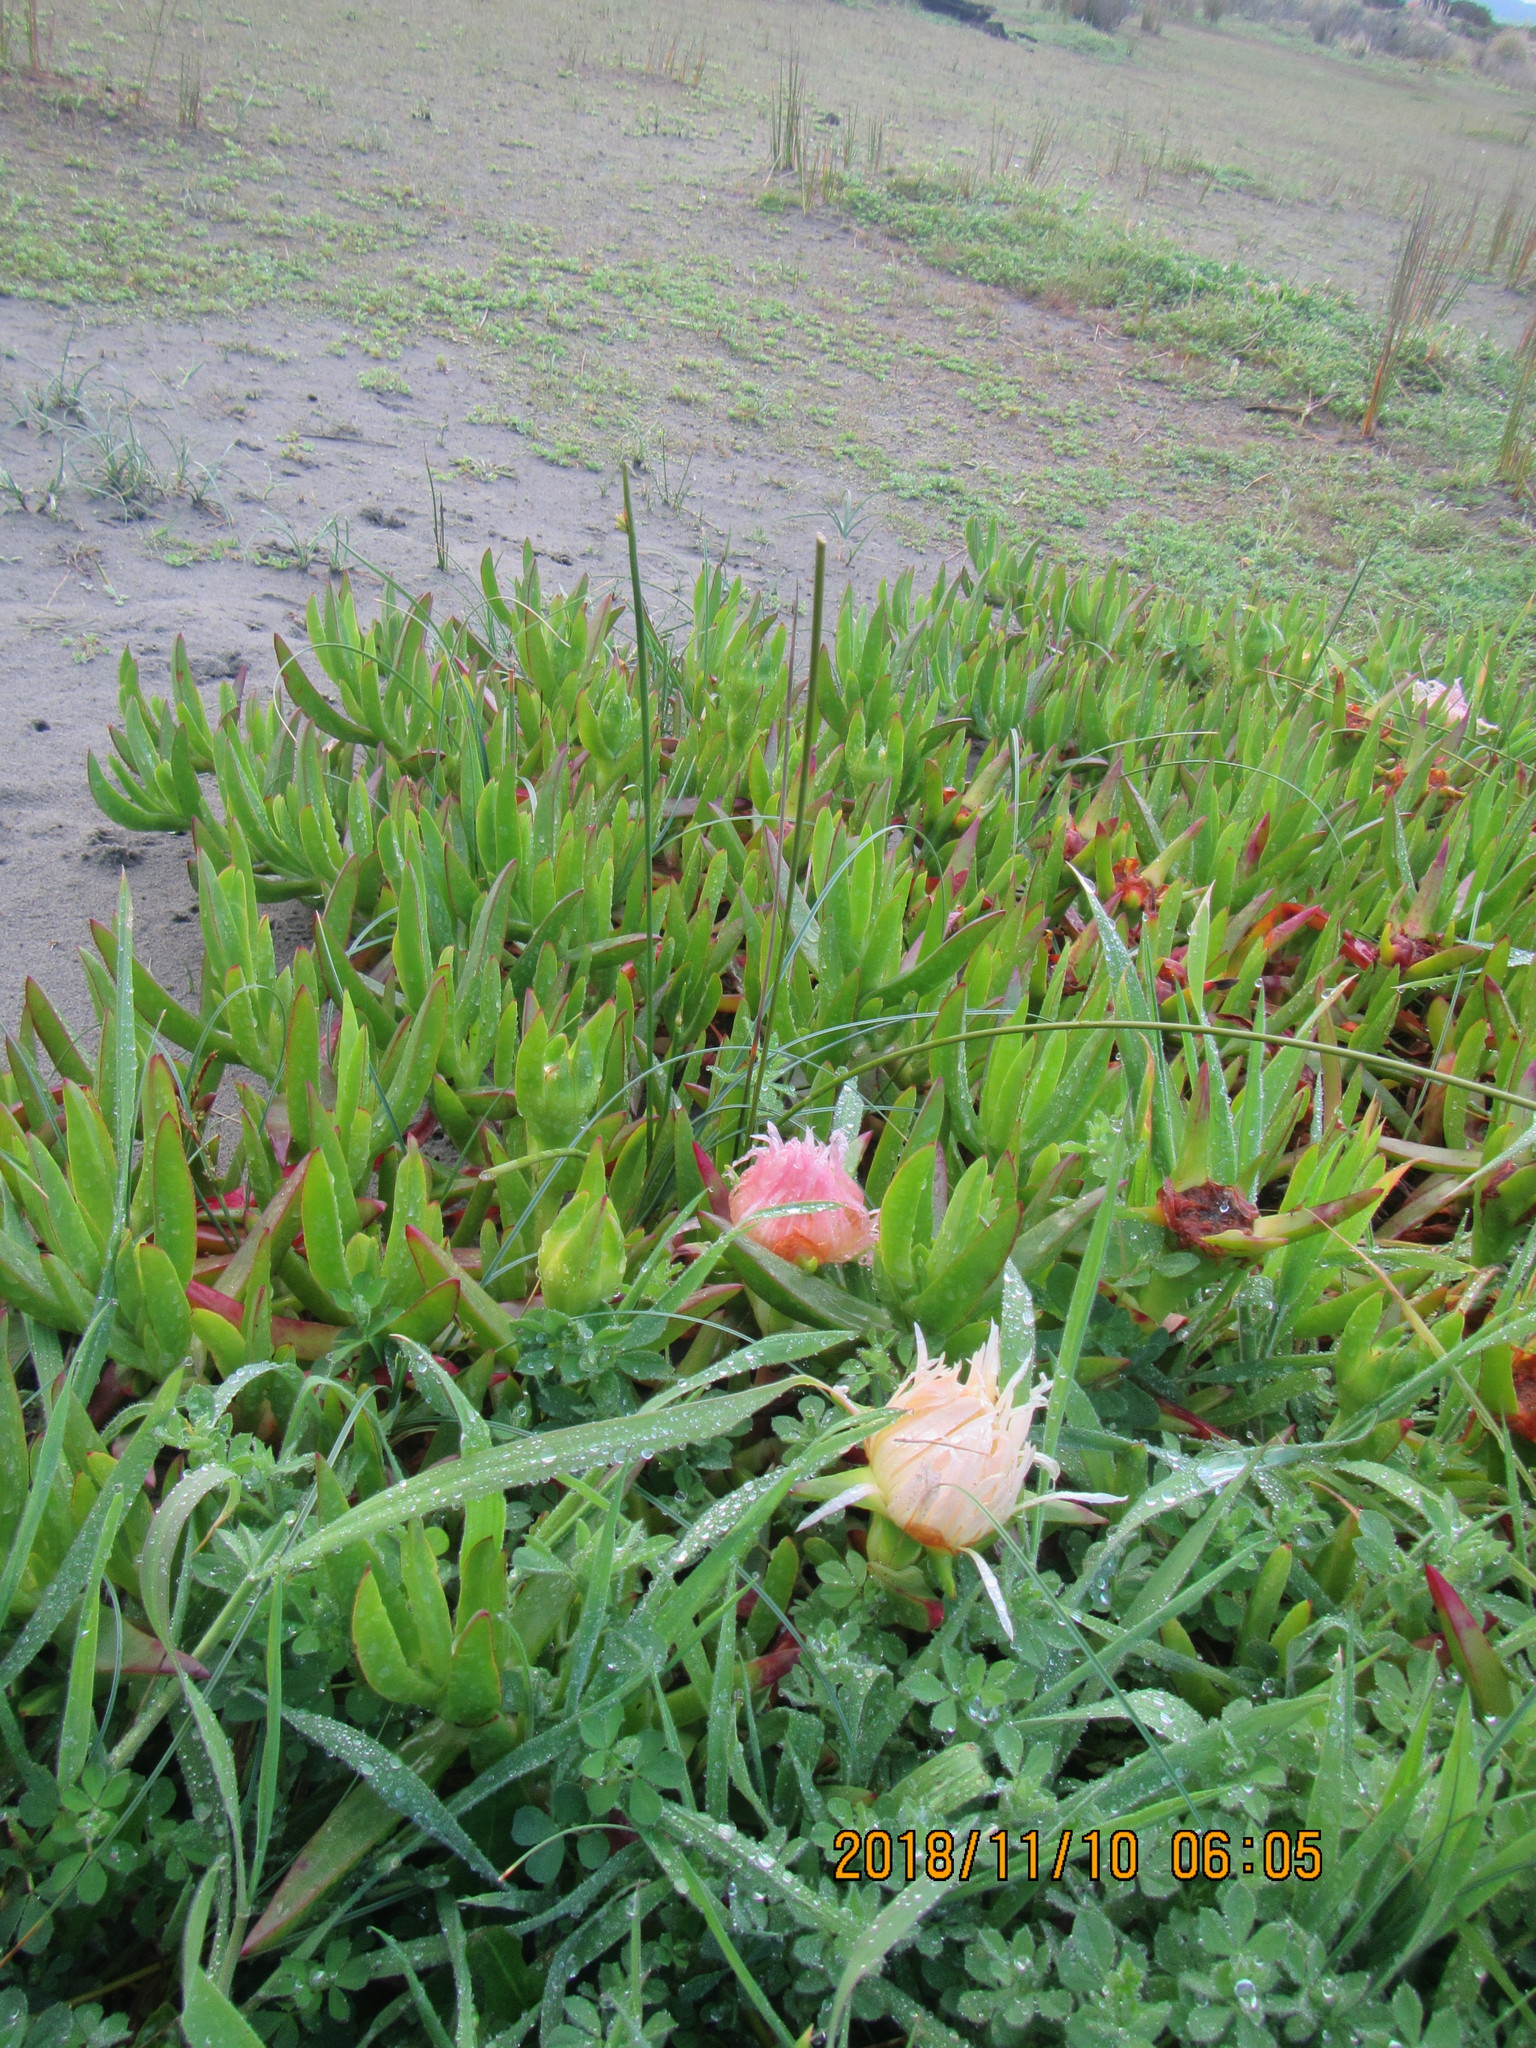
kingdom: Plantae
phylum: Tracheophyta
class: Magnoliopsida
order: Caryophyllales
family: Aizoaceae
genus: Carpobrotus
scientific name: Carpobrotus edulis
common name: Hottentot-fig
